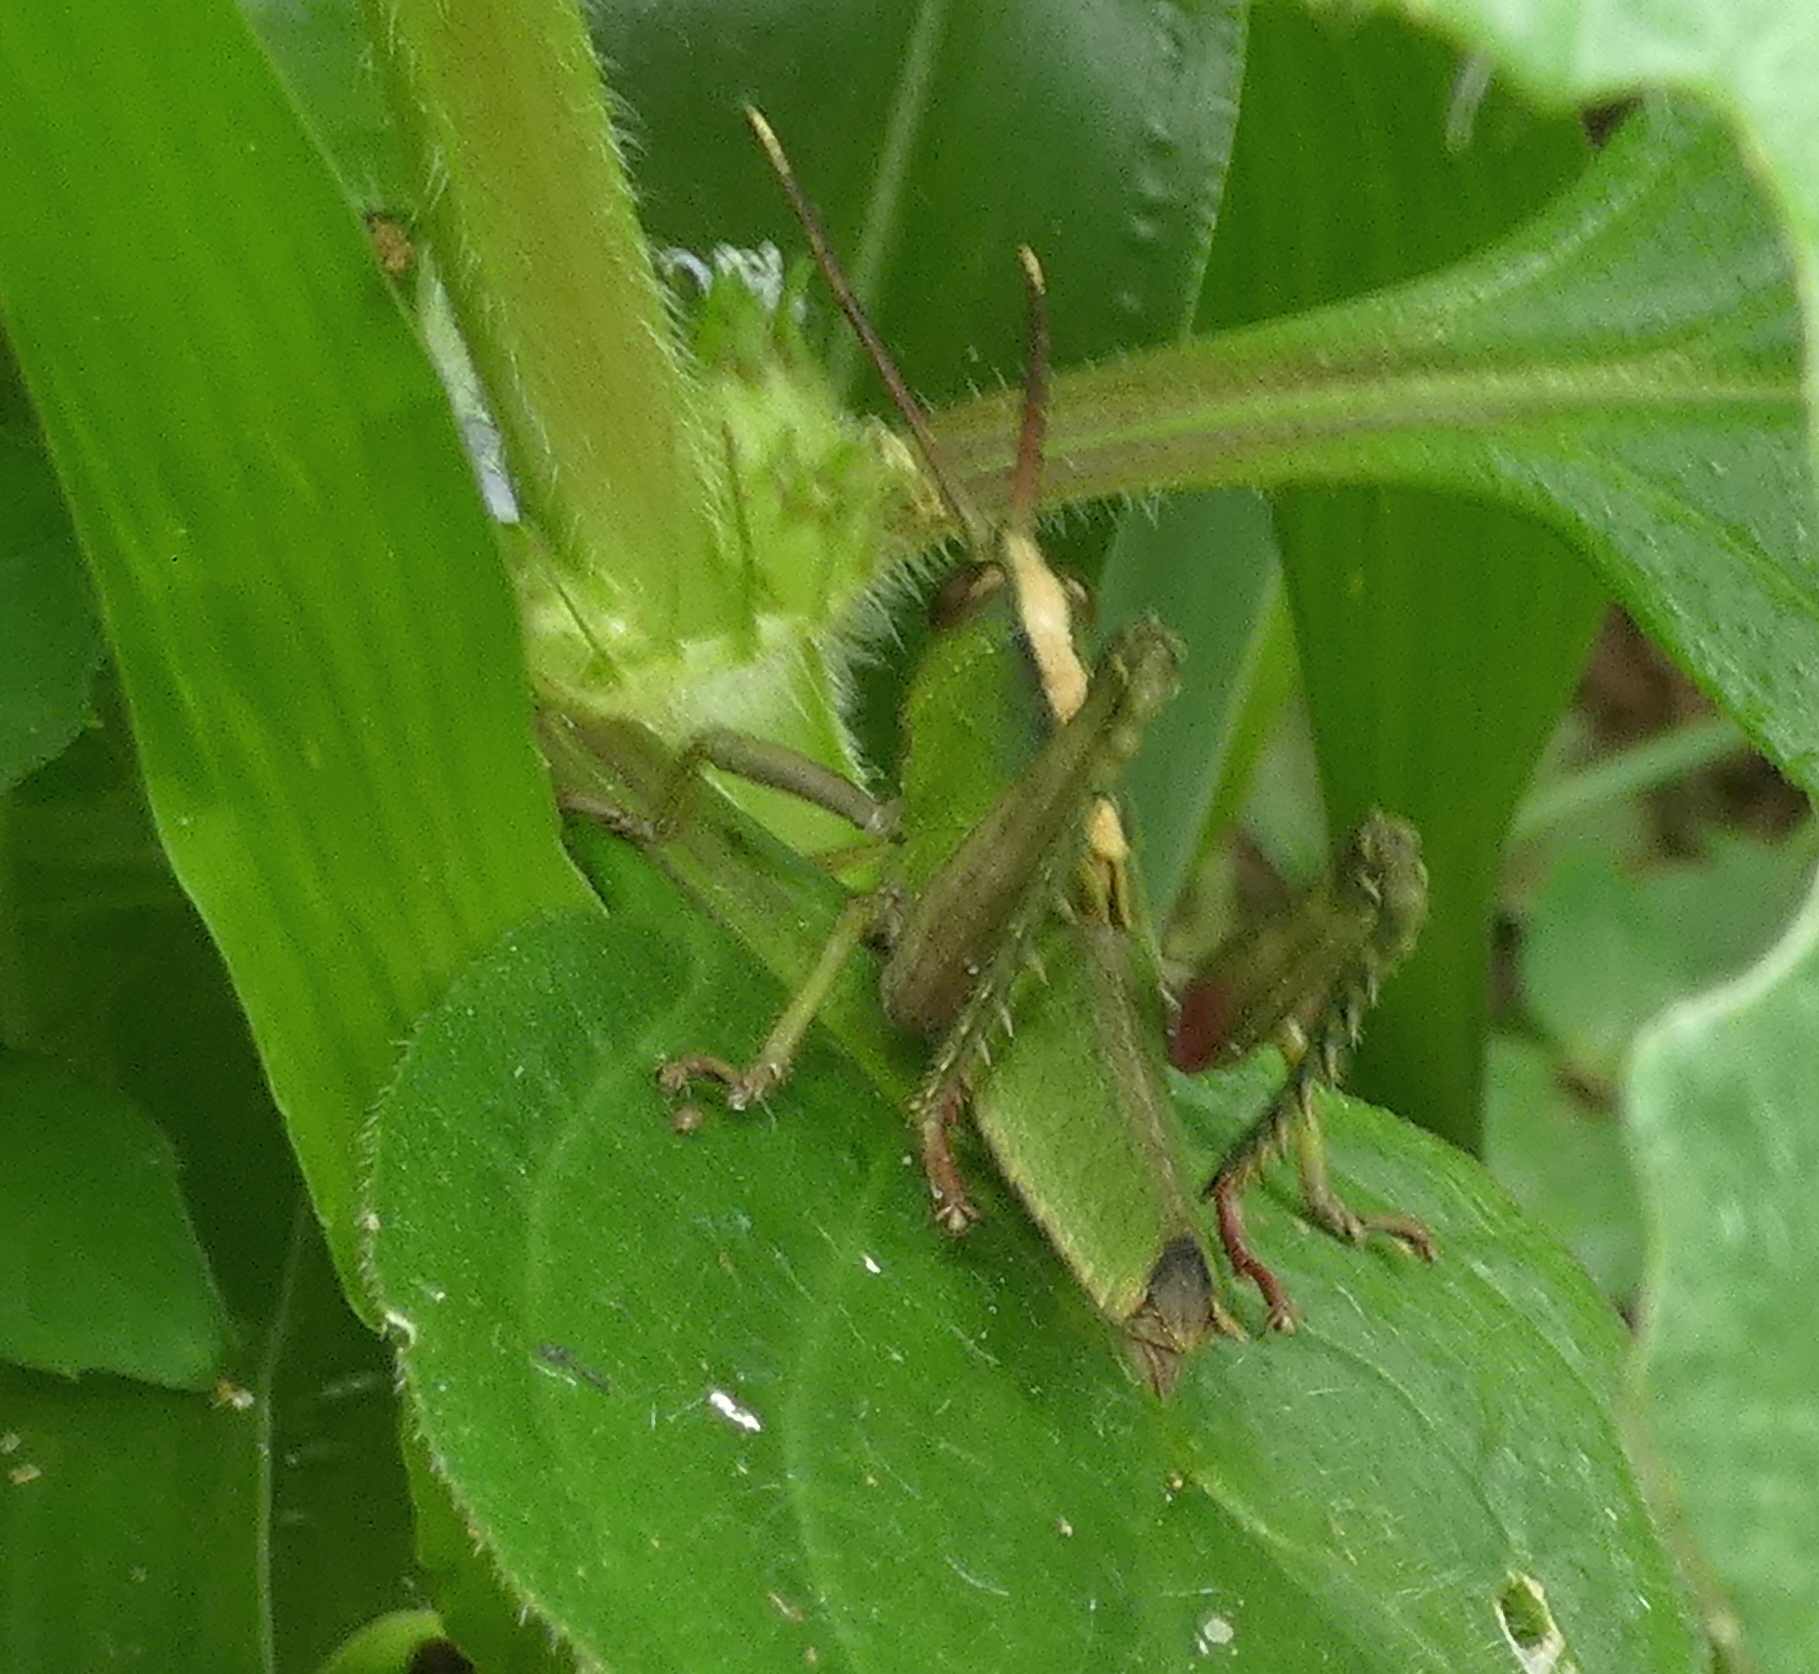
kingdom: Animalia
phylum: Arthropoda
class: Insecta
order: Orthoptera
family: Romaleidae
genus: Agriacris
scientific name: Agriacris auripennis
